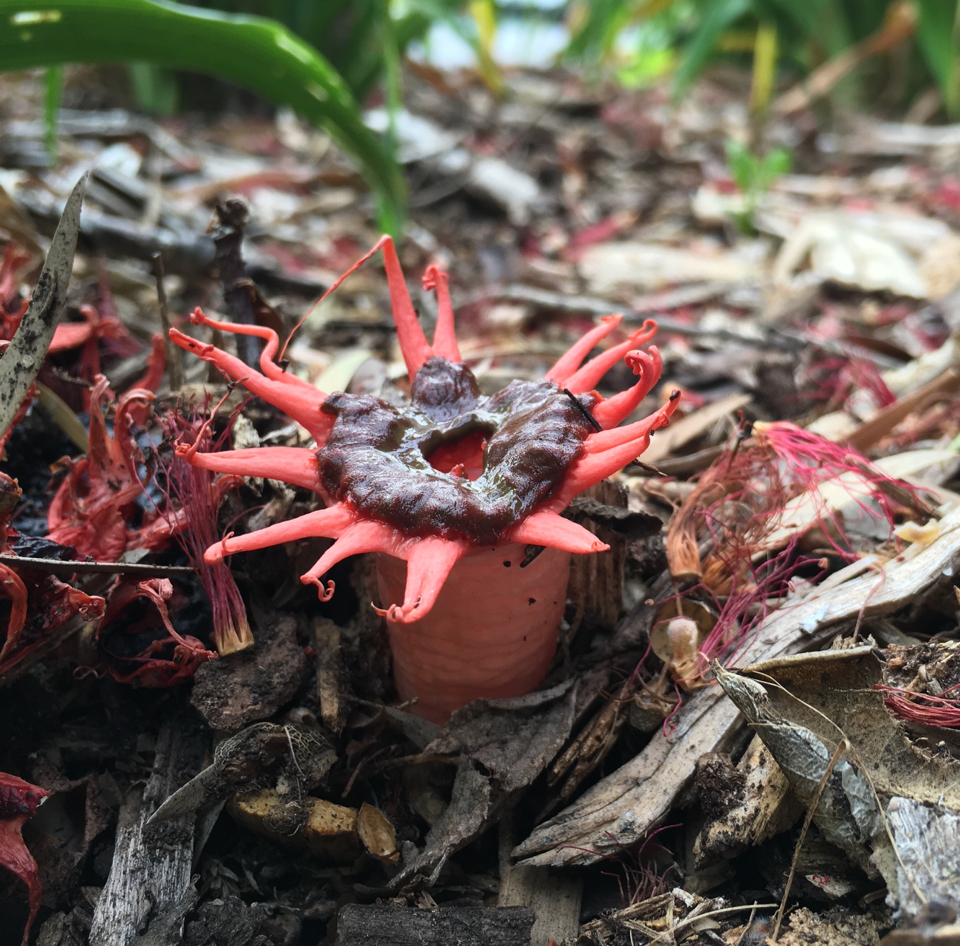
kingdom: Fungi
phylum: Basidiomycota
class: Agaricomycetes
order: Phallales
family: Phallaceae
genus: Aseroe
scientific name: Aseroe rubra
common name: Starfish fungus
